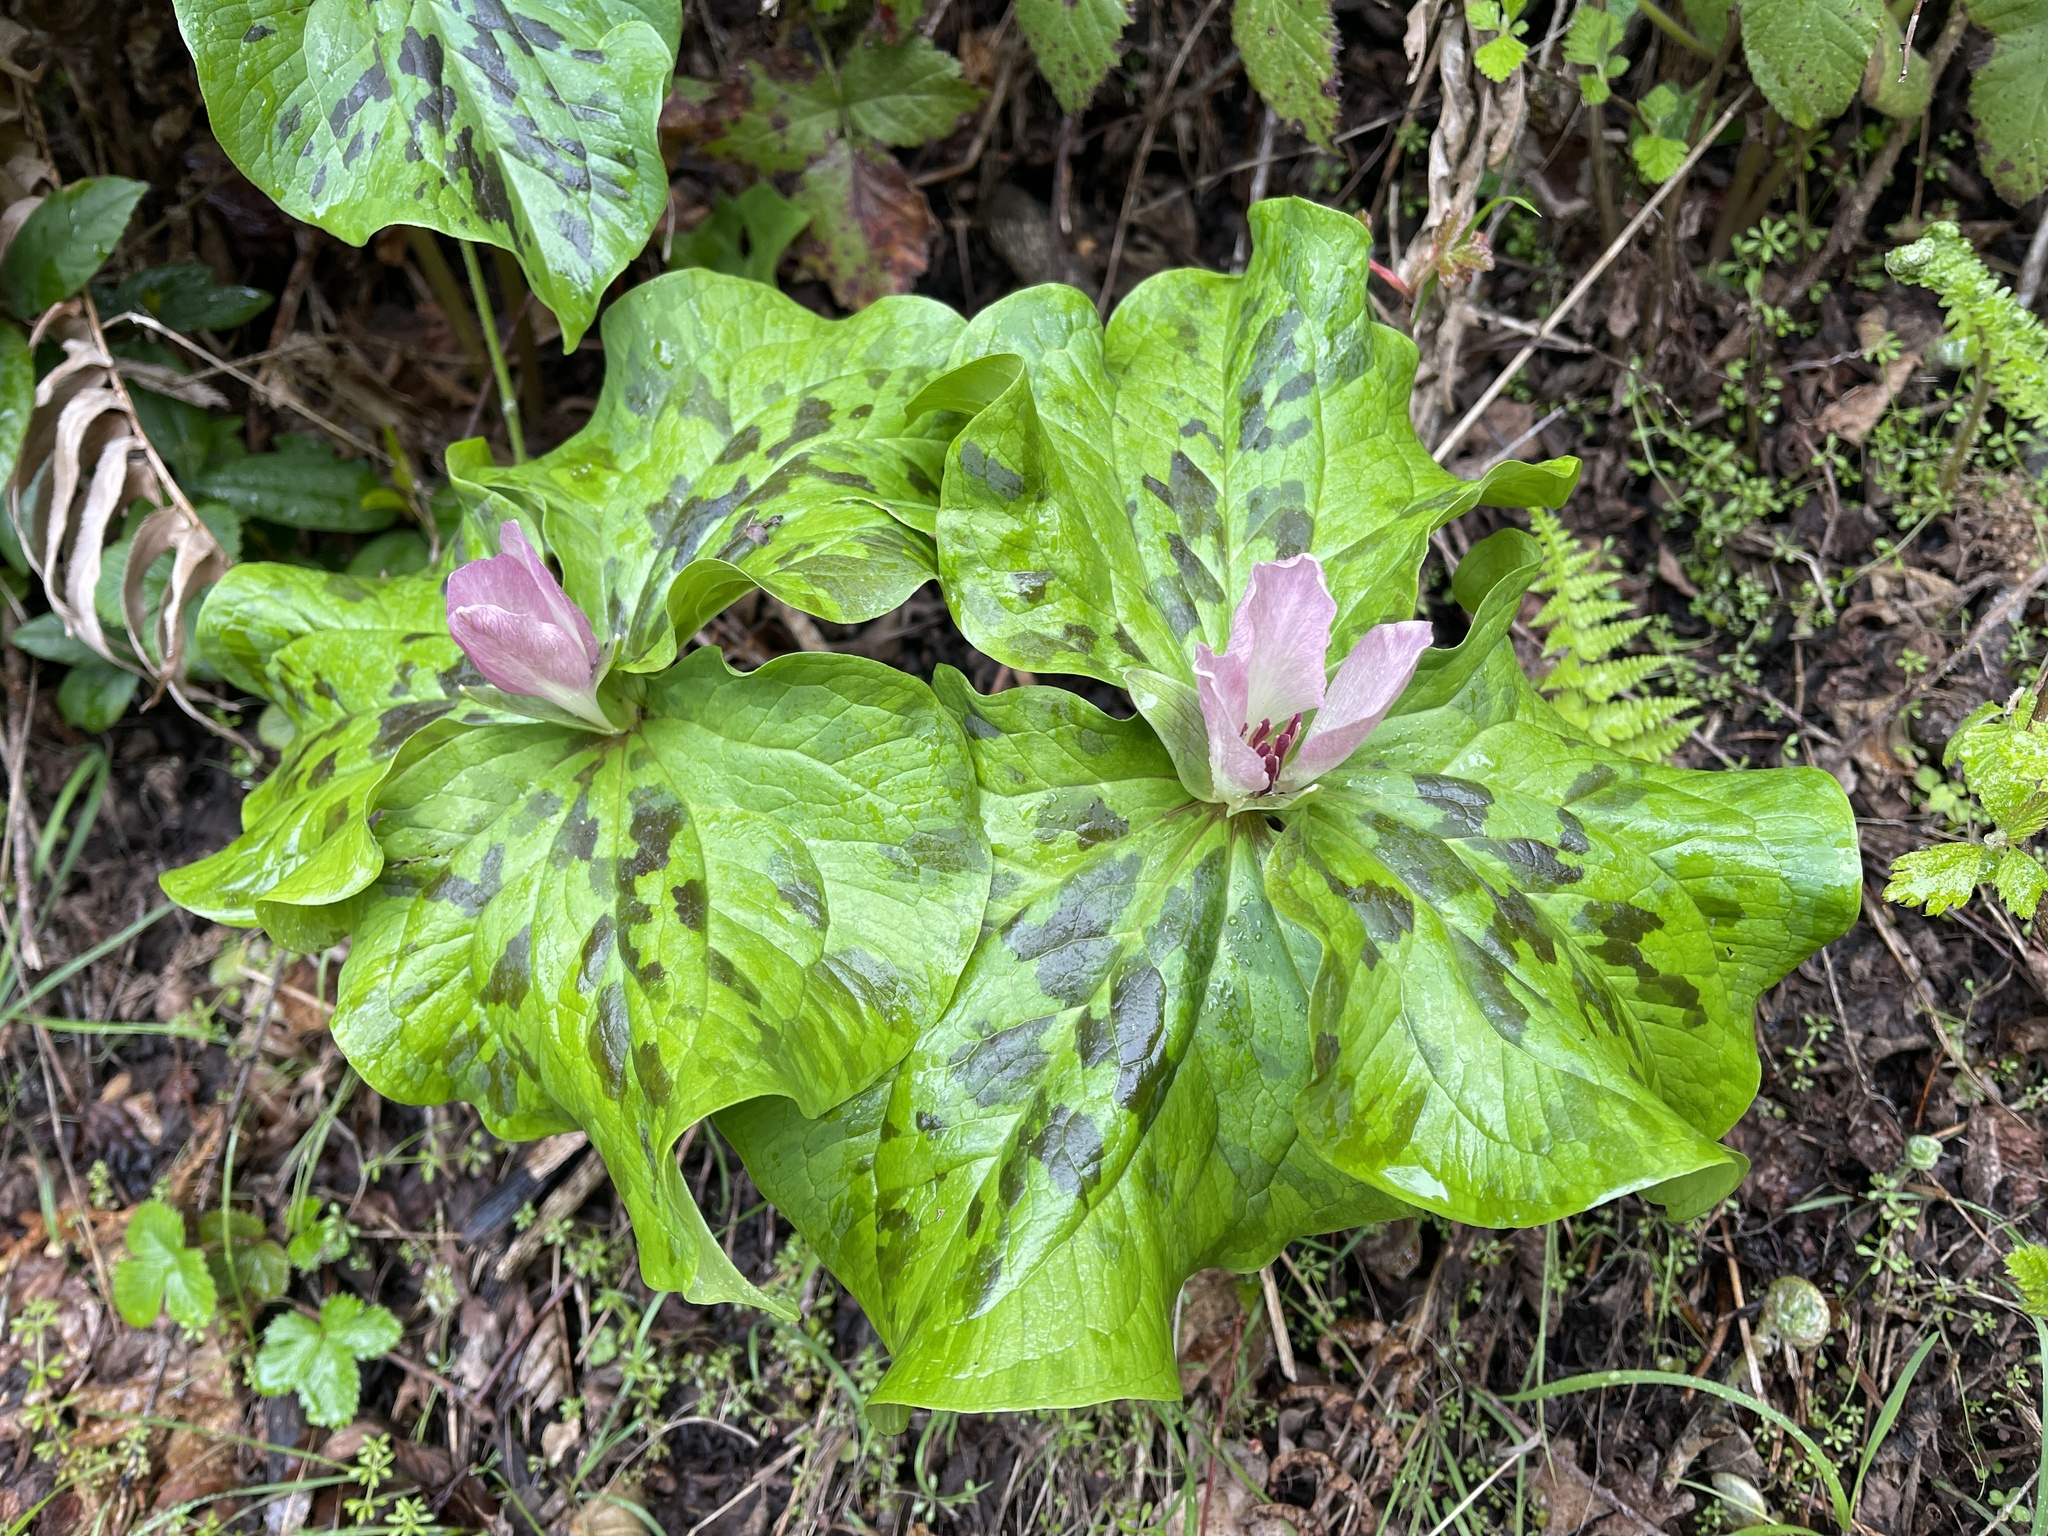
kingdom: Plantae
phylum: Tracheophyta
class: Liliopsida
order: Liliales
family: Melanthiaceae
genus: Trillium
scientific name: Trillium chloropetalum
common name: Giant trillium
